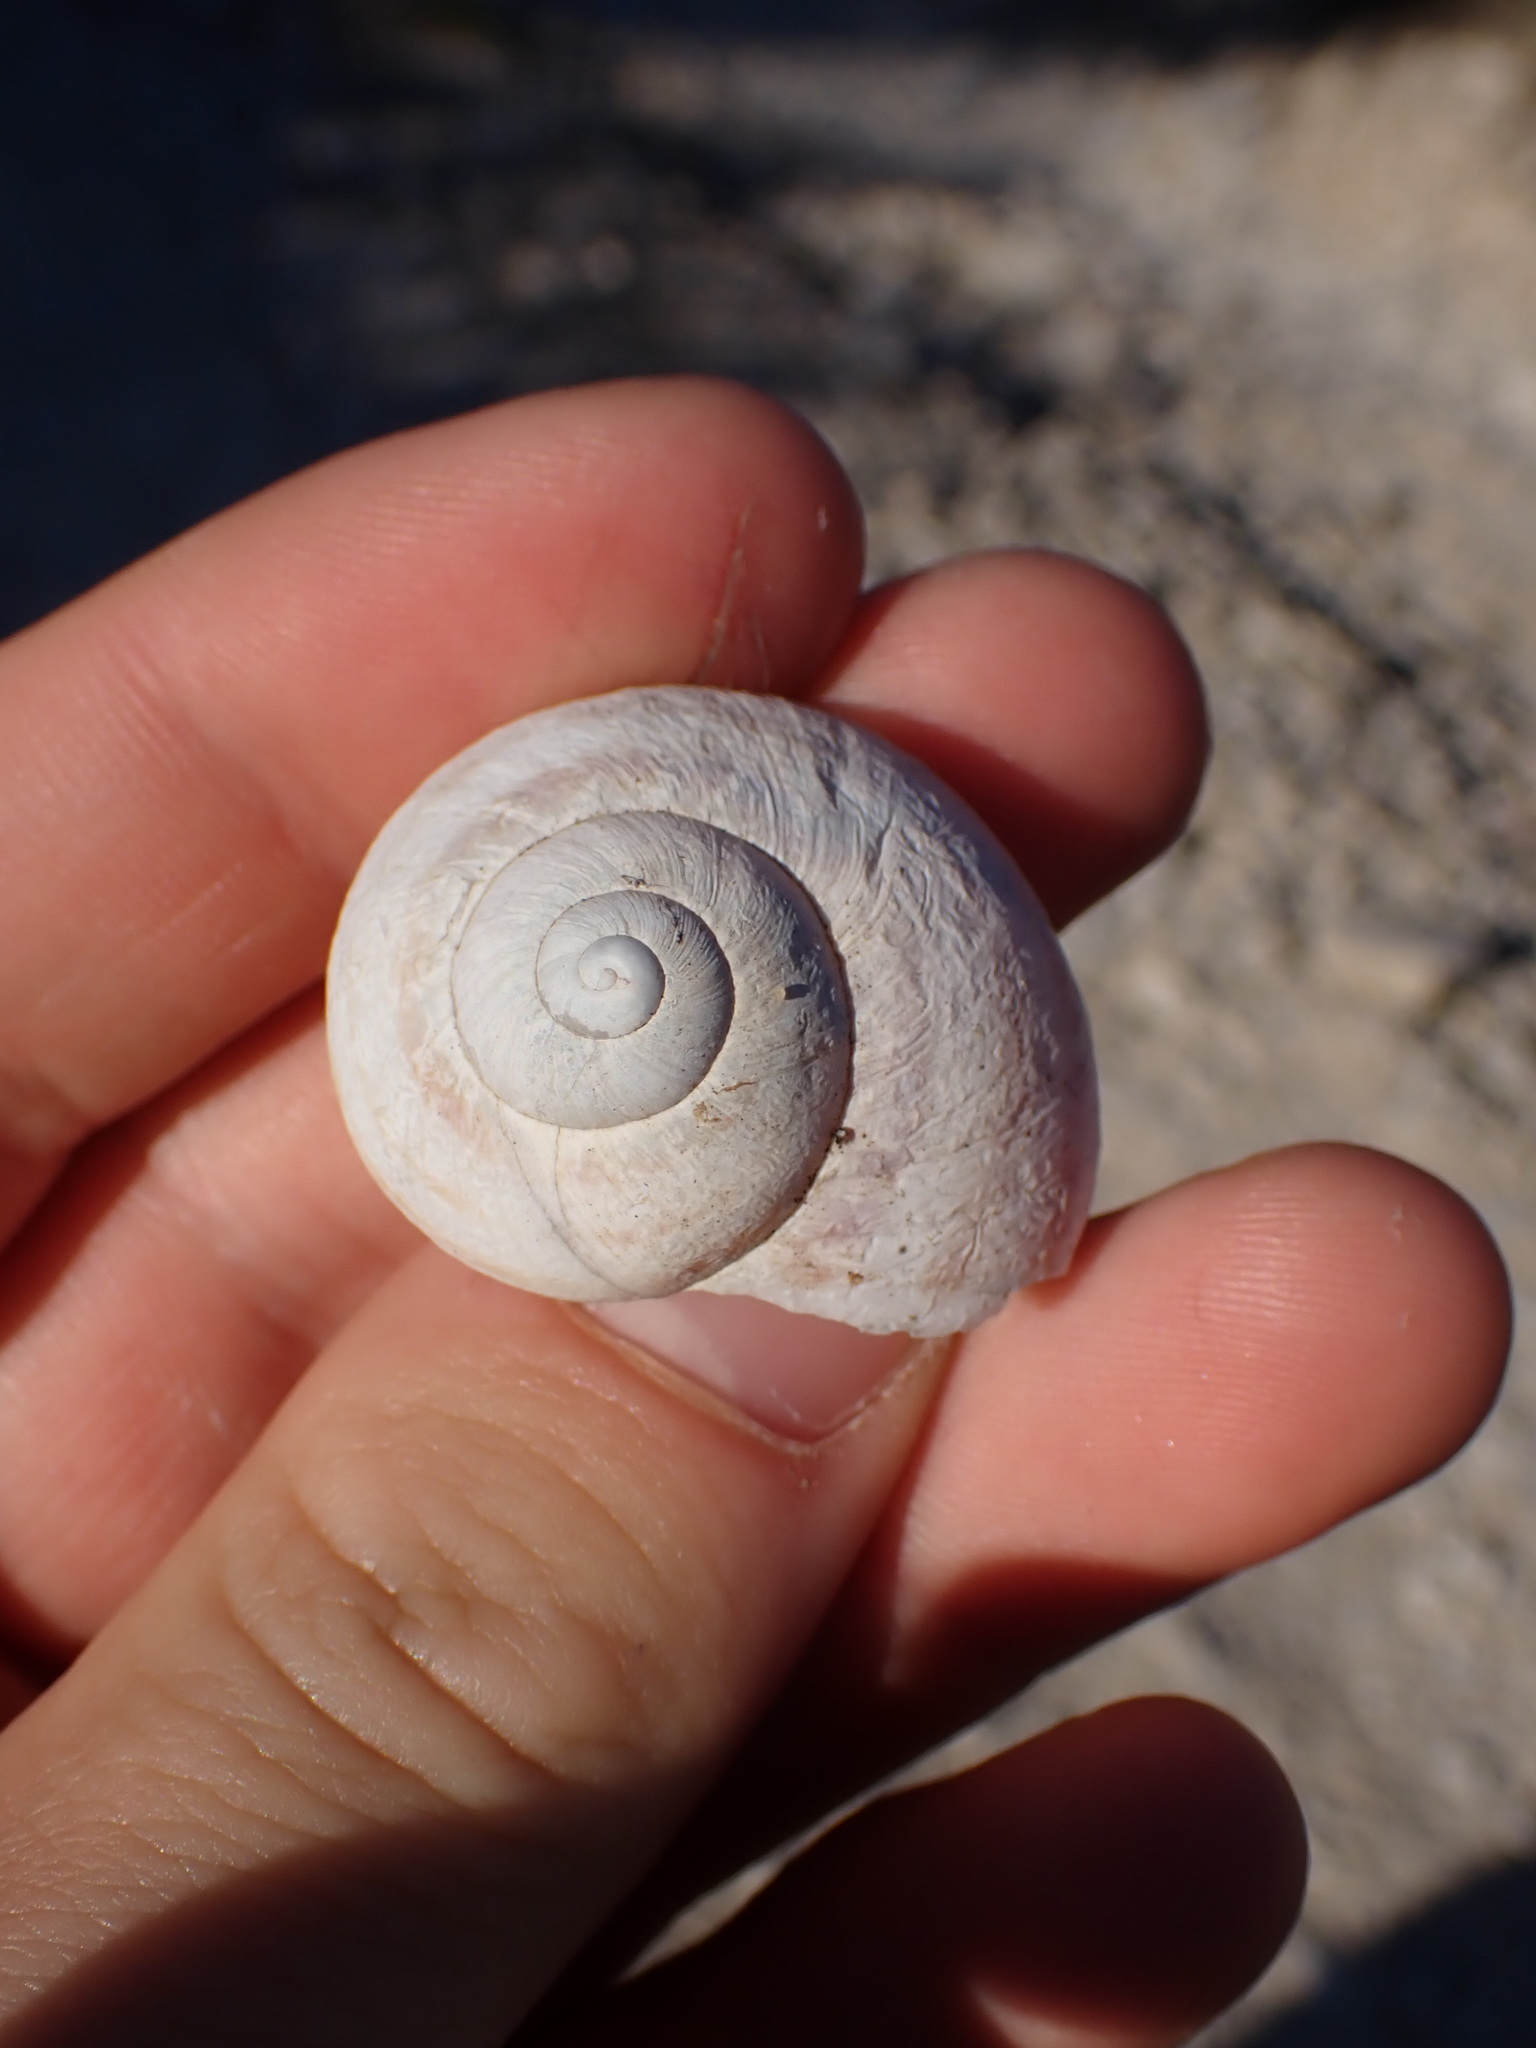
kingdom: Animalia
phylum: Mollusca
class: Gastropoda
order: Stylommatophora
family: Helicidae
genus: Cornu
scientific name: Cornu aspersum
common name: Brown garden snail
